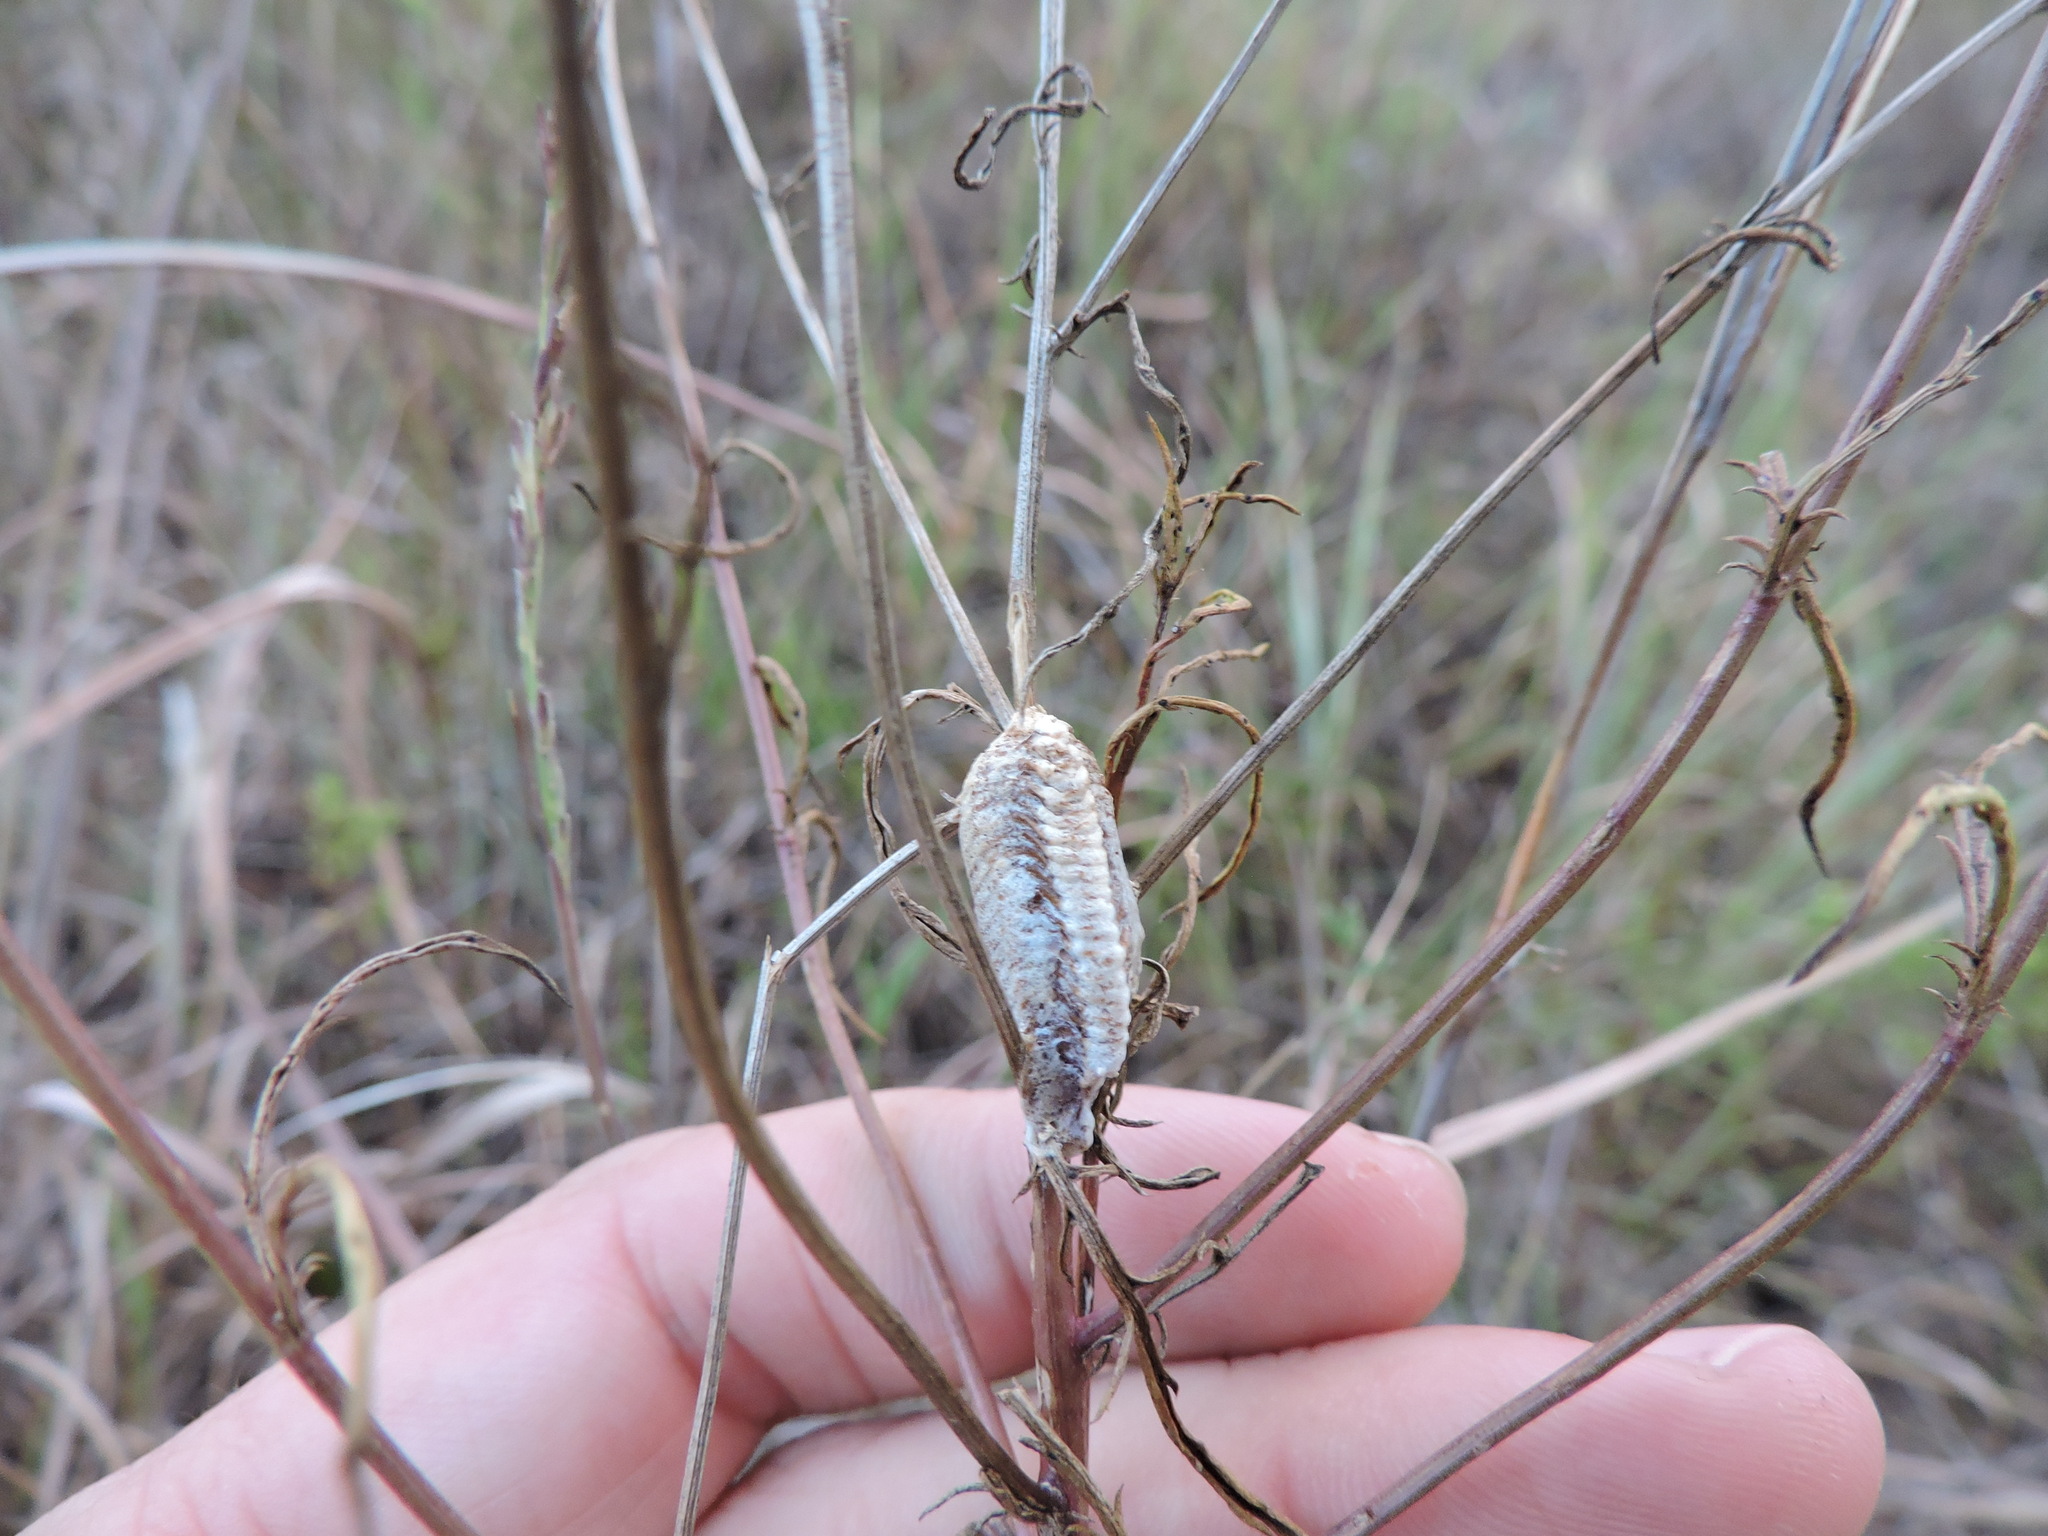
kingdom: Animalia
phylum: Arthropoda
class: Insecta
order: Mantodea
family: Mantidae
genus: Stagmomantis
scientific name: Stagmomantis carolina
